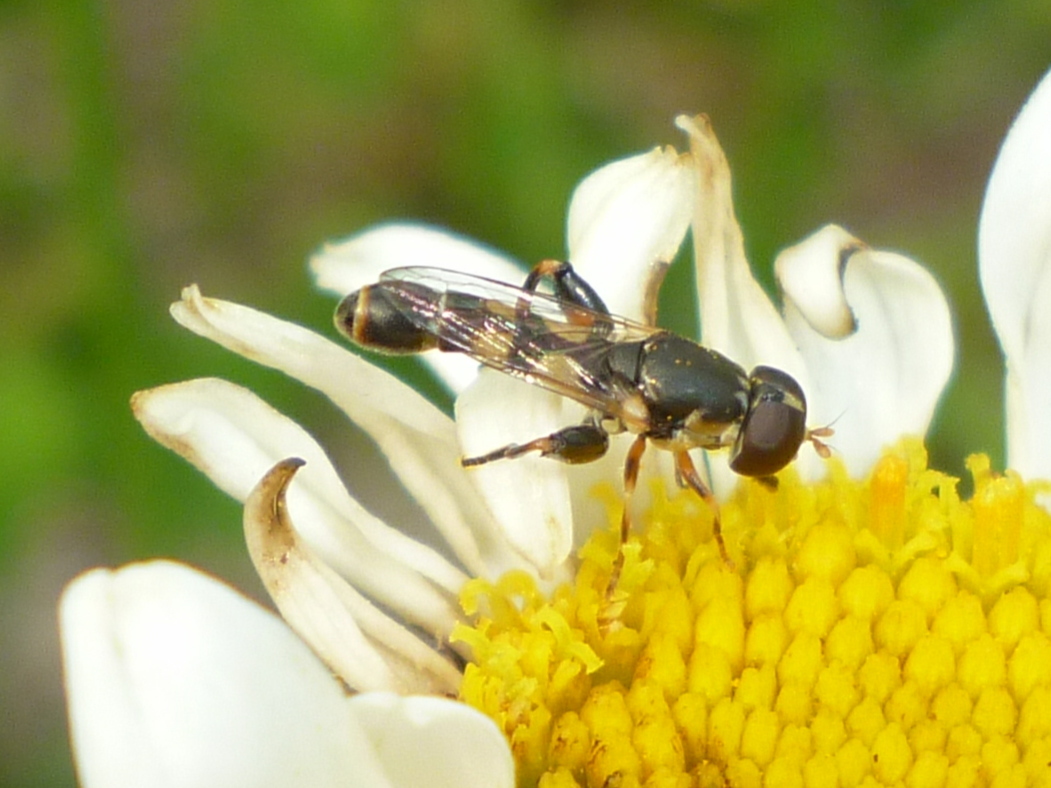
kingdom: Animalia
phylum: Arthropoda
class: Insecta
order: Diptera
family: Syrphidae
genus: Syritta
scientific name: Syritta pipiens
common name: Hover fly
